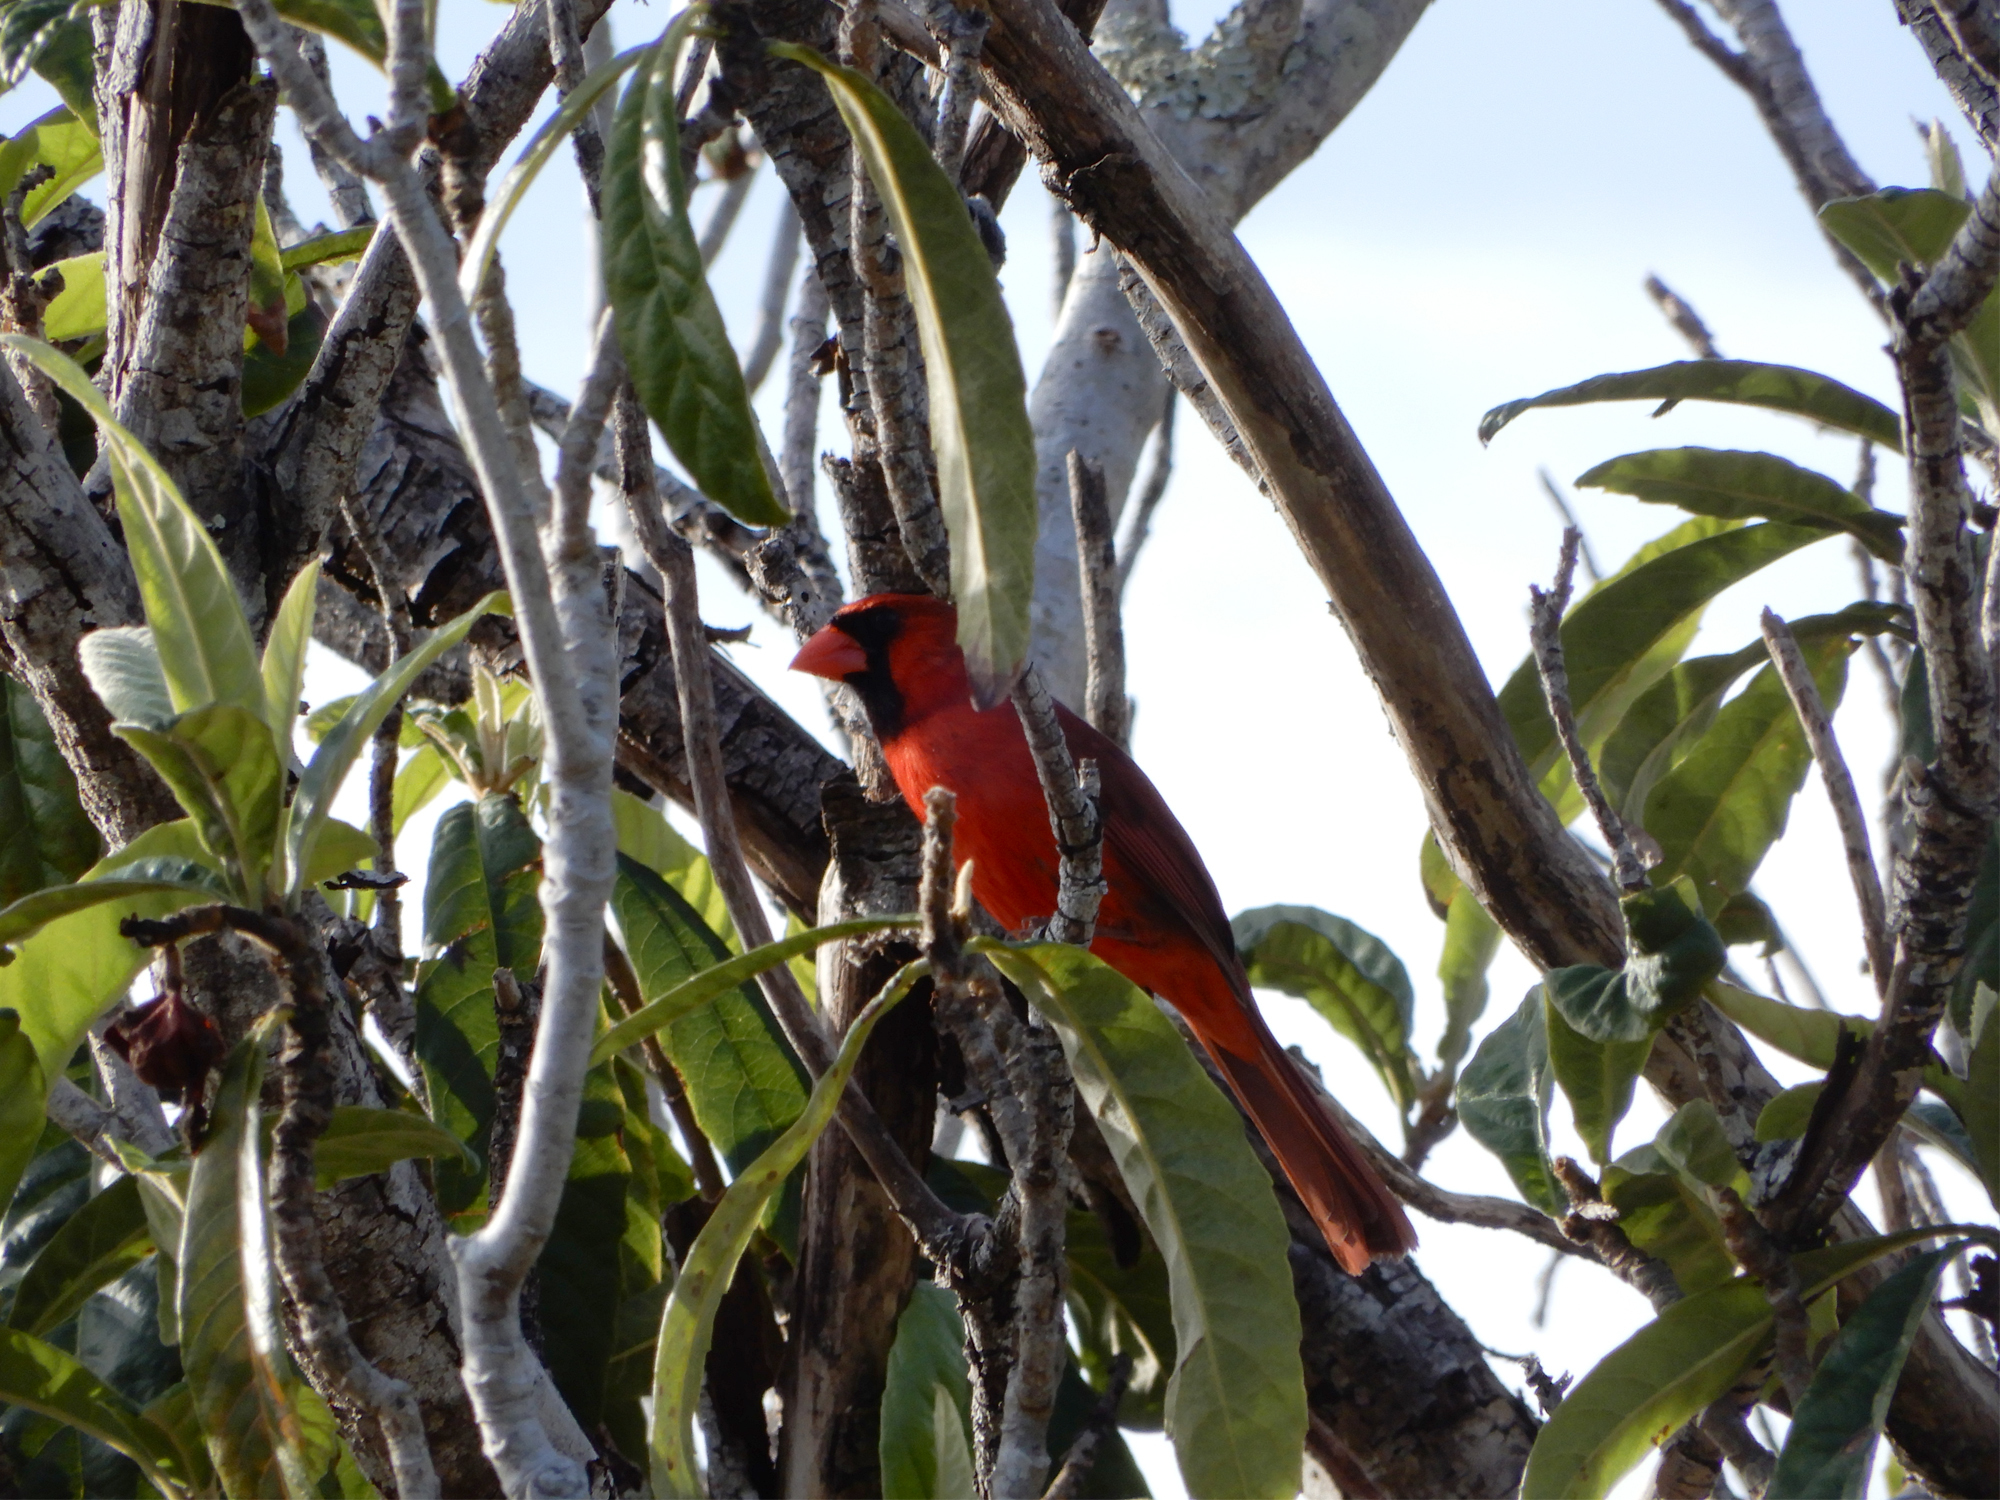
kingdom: Animalia
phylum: Chordata
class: Aves
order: Passeriformes
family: Cardinalidae
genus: Cardinalis
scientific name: Cardinalis cardinalis
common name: Northern cardinal
